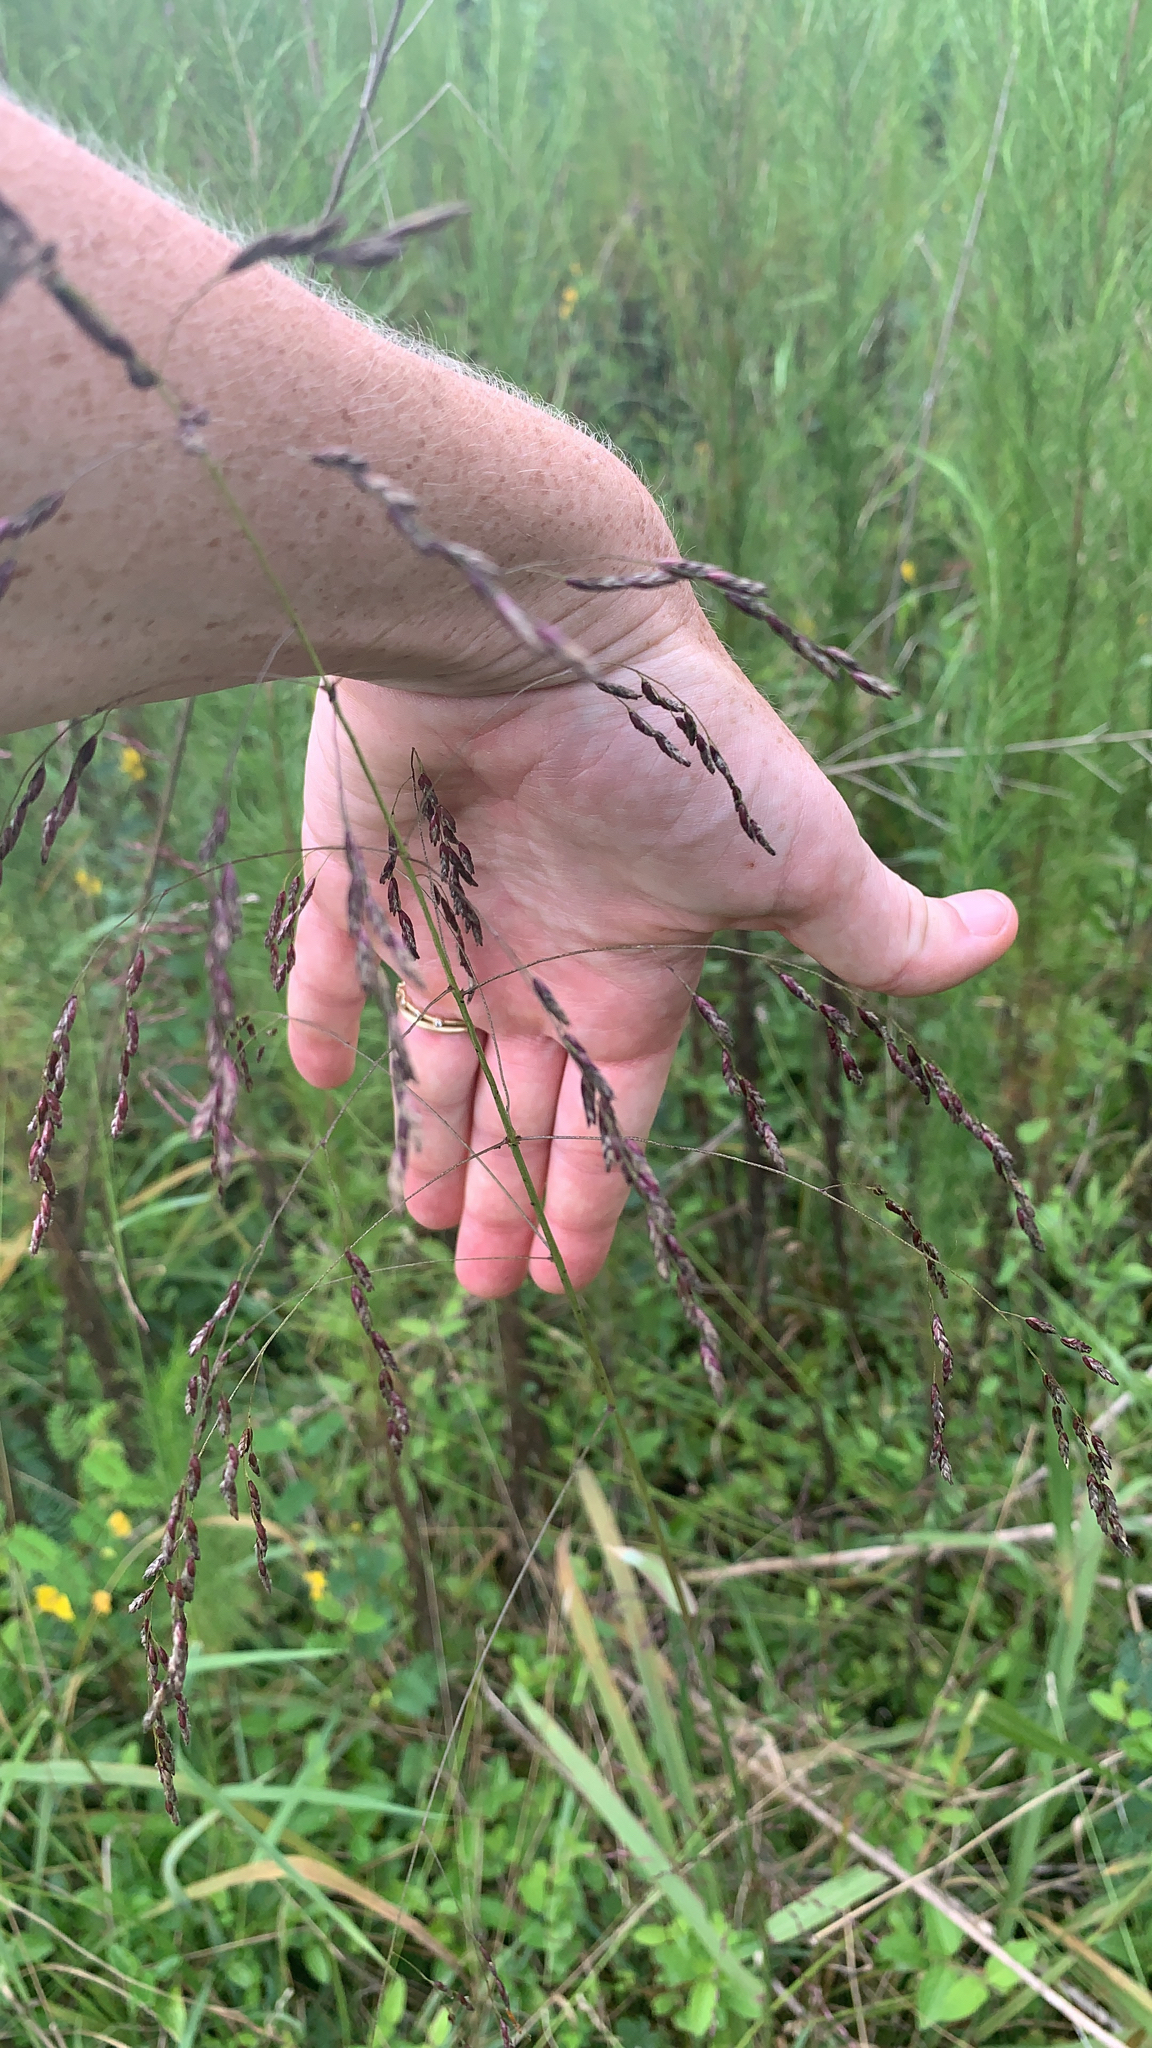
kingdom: Plantae
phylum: Tracheophyta
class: Liliopsida
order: Poales
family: Poaceae
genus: Tridens
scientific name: Tridens flavus
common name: Purpletop
